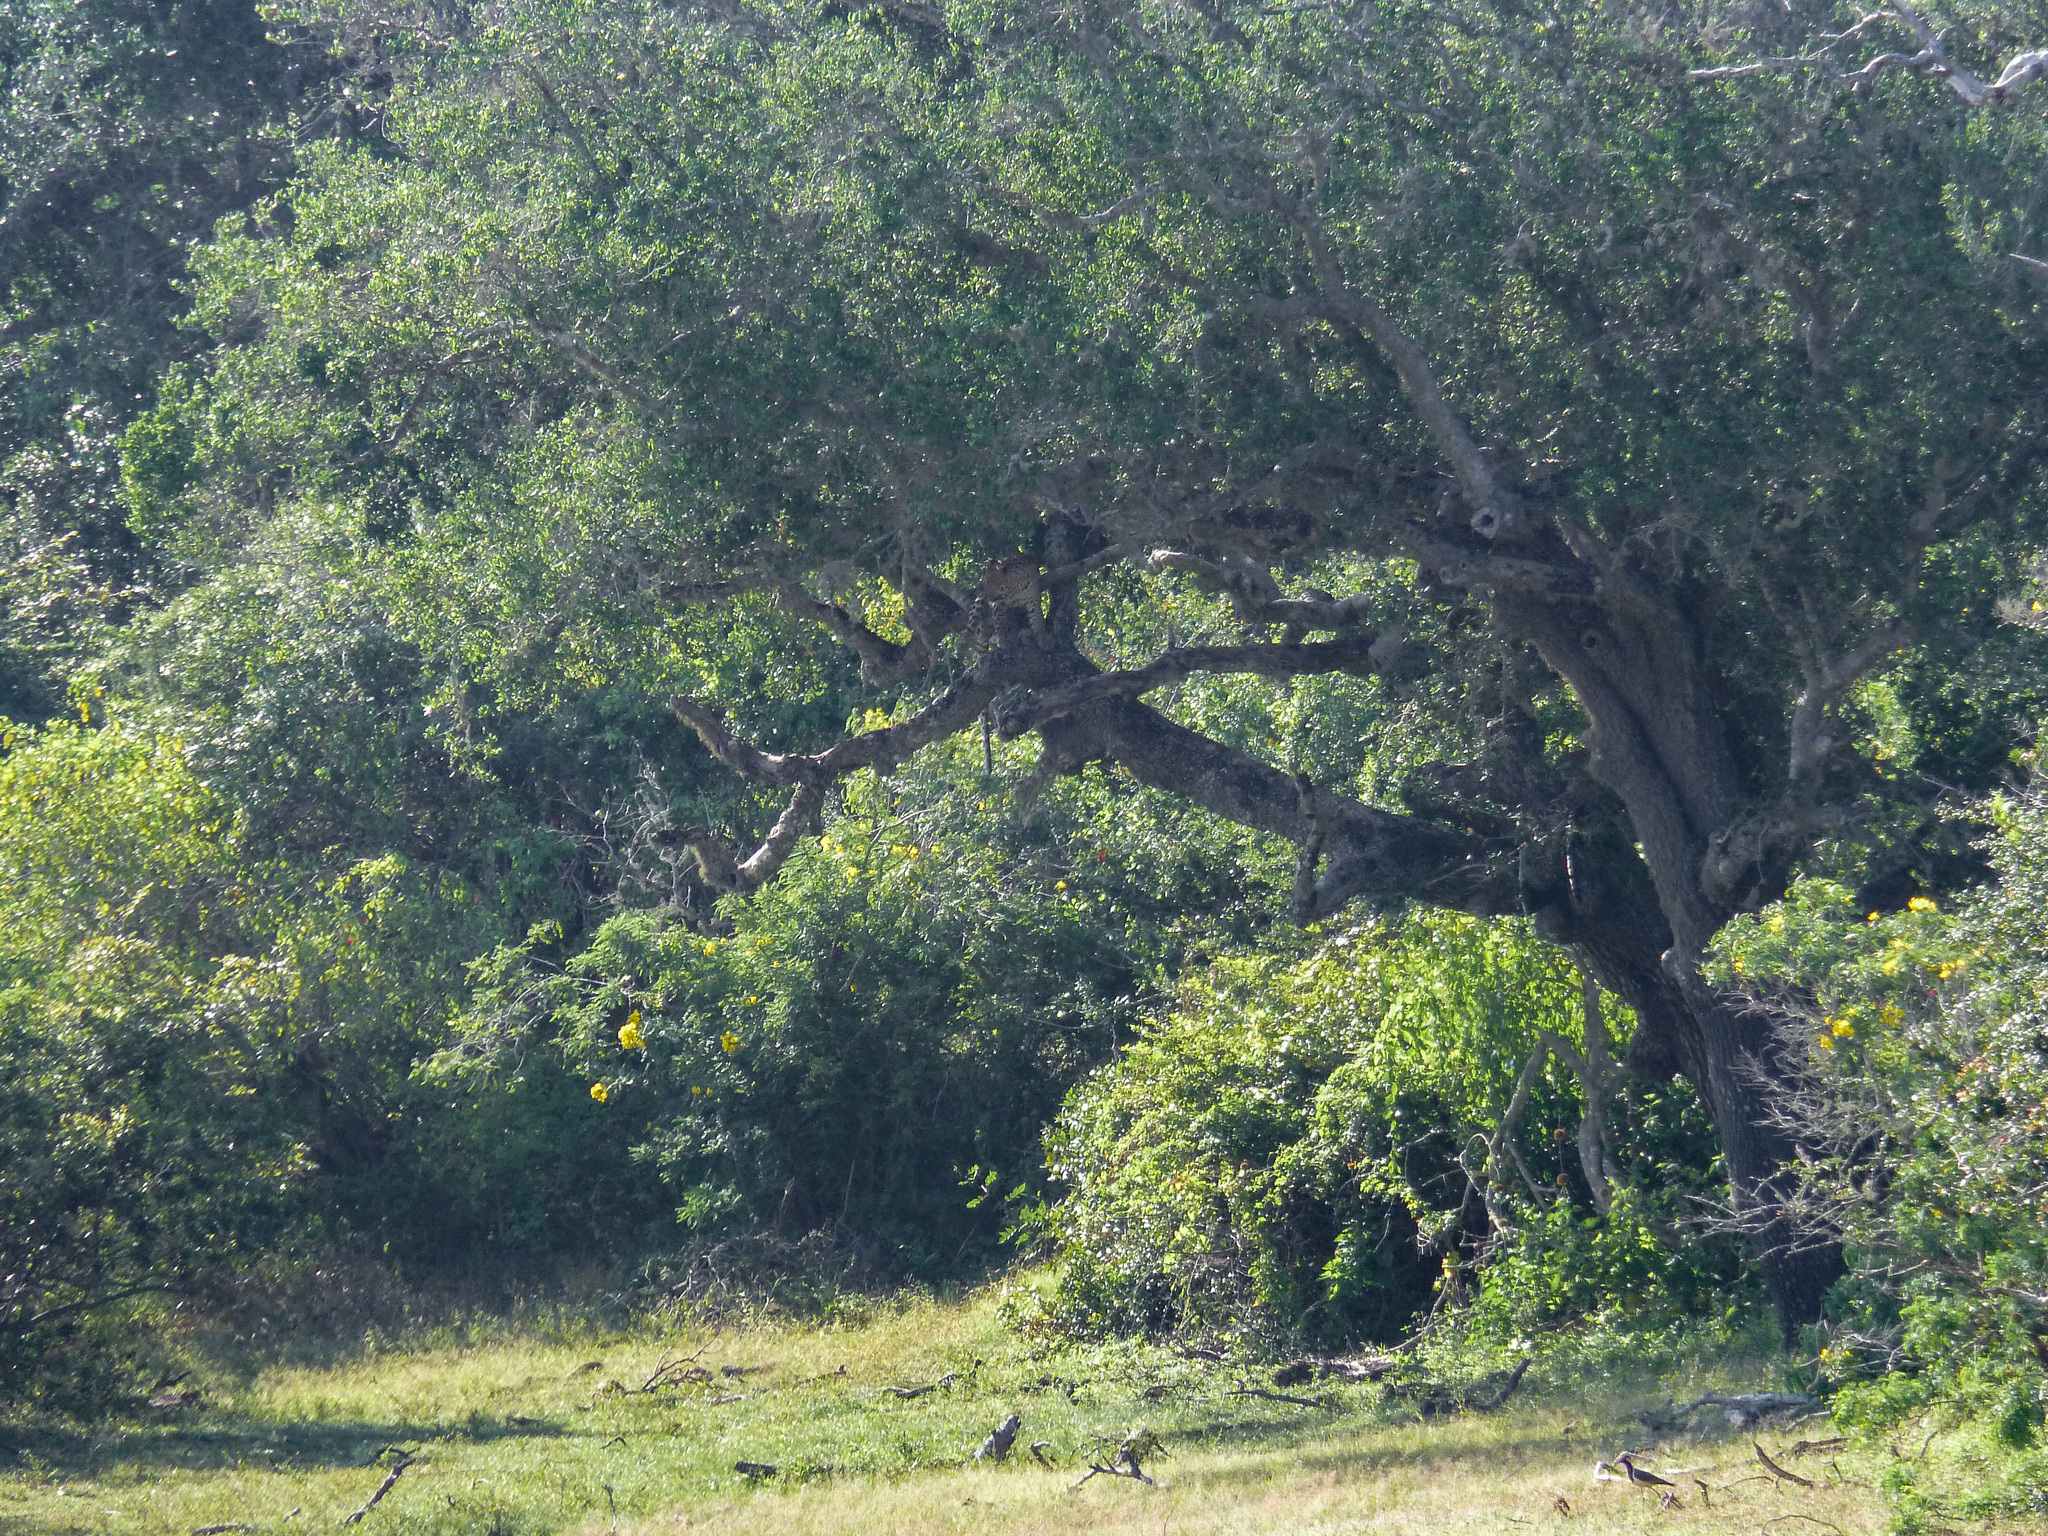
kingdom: Animalia
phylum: Chordata
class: Mammalia
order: Carnivora
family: Felidae
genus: Panthera
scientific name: Panthera pardus
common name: Leopard
